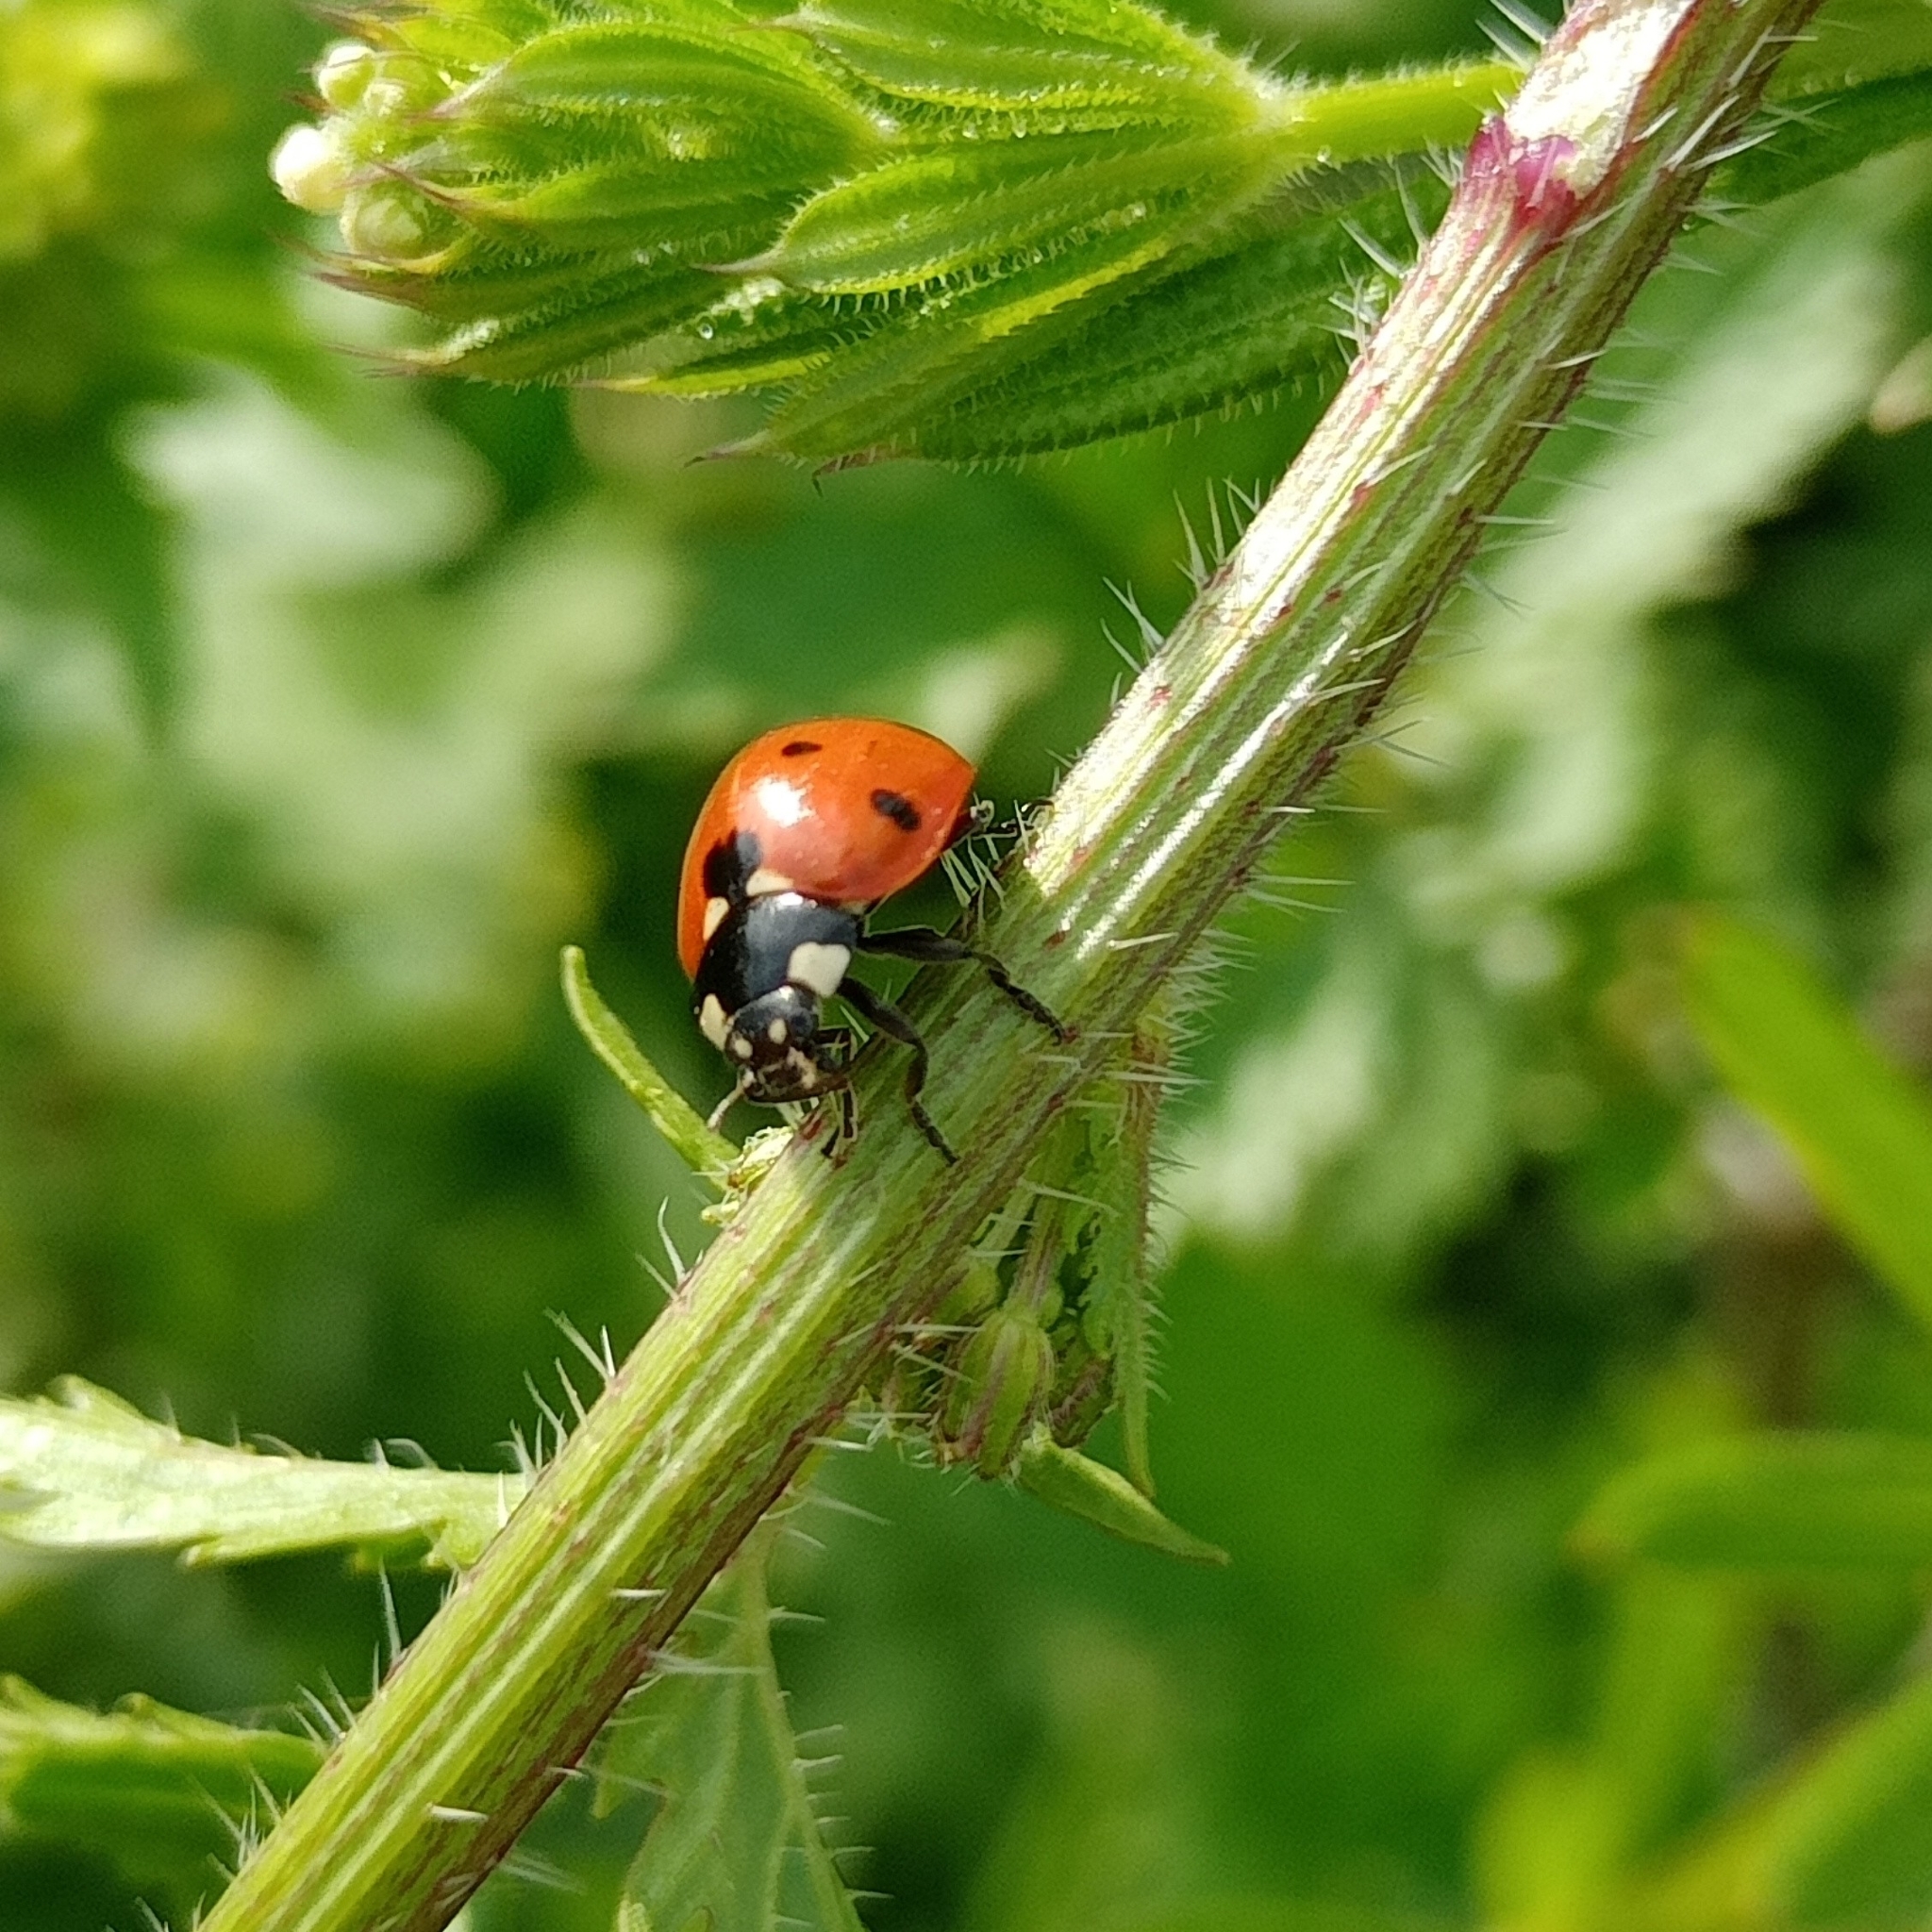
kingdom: Animalia
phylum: Arthropoda
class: Insecta
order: Coleoptera
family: Coccinellidae
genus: Coccinella
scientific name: Coccinella septempunctata
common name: Sevenspotted lady beetle
